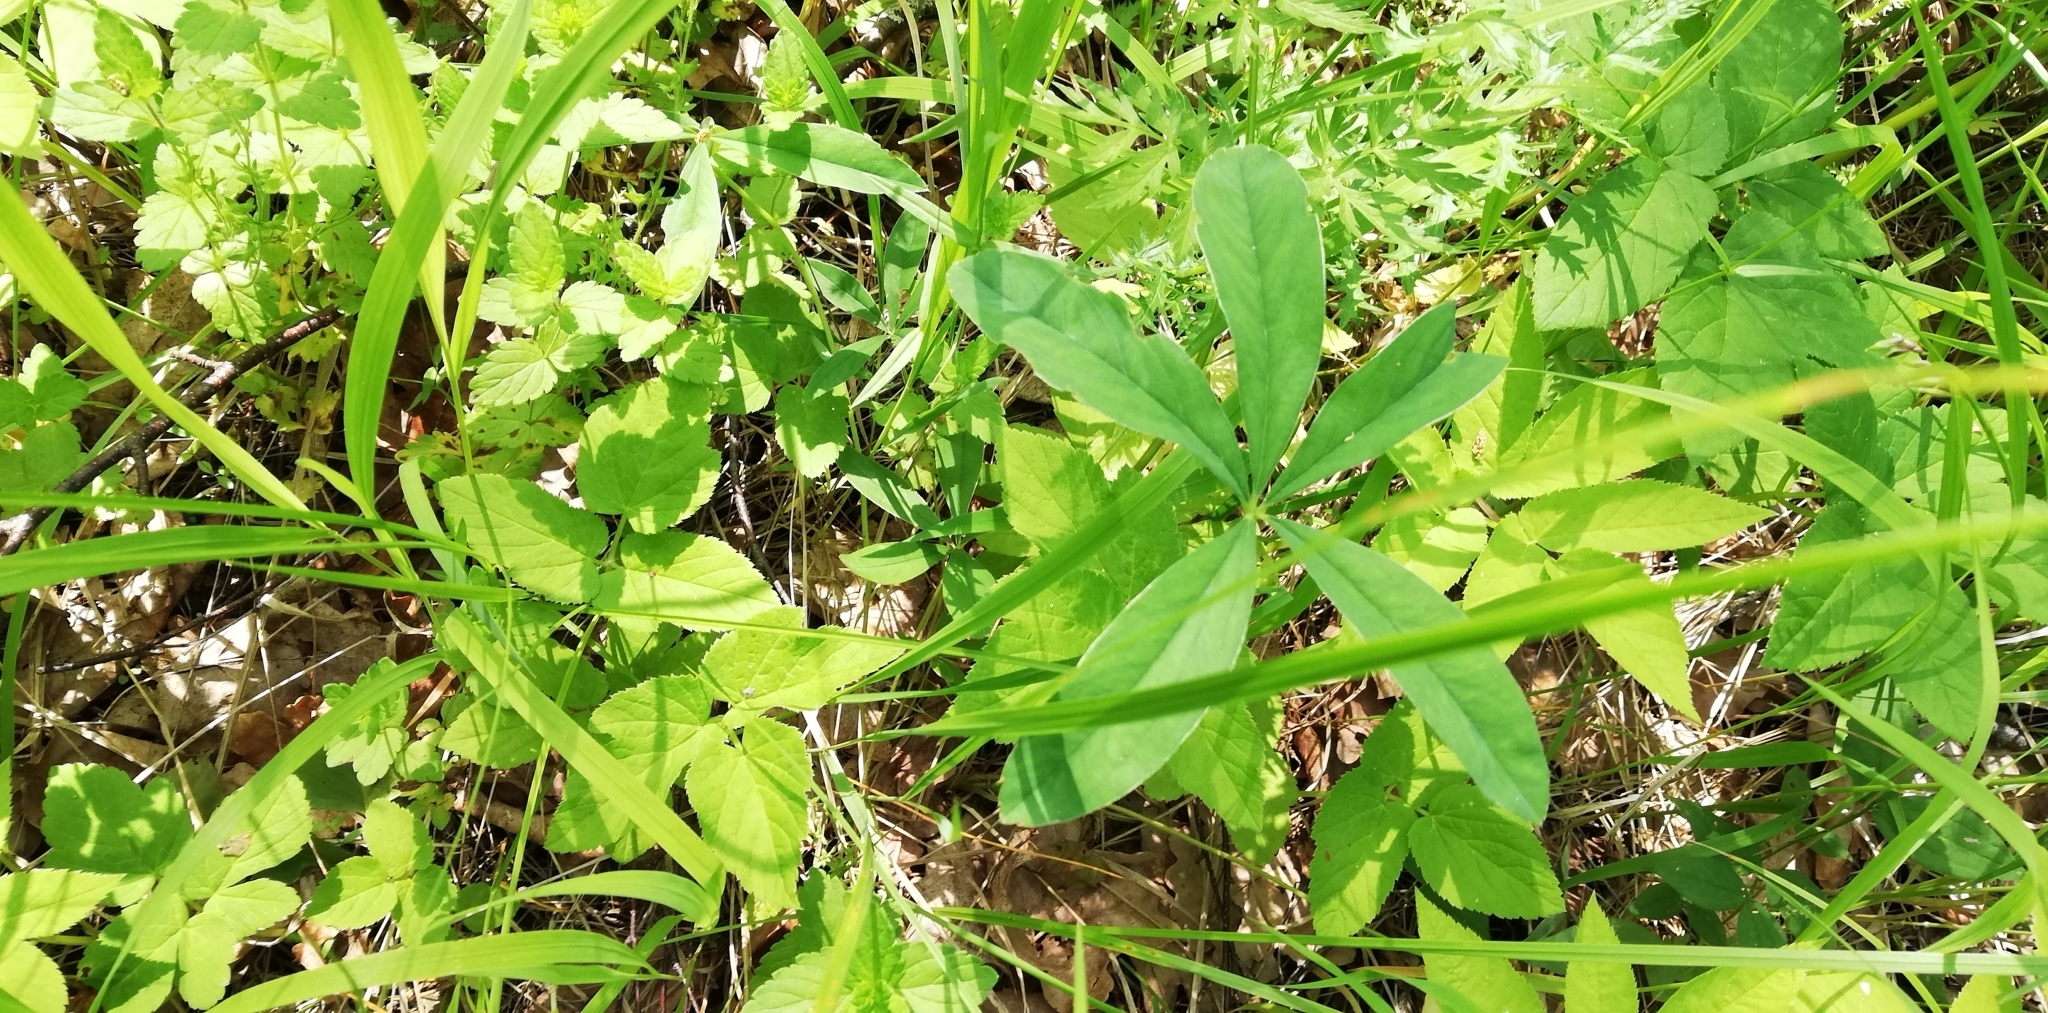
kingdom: Plantae
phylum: Tracheophyta
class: Magnoliopsida
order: Rosales
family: Rosaceae
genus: Potentilla
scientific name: Potentilla alba
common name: White cinquefoil
